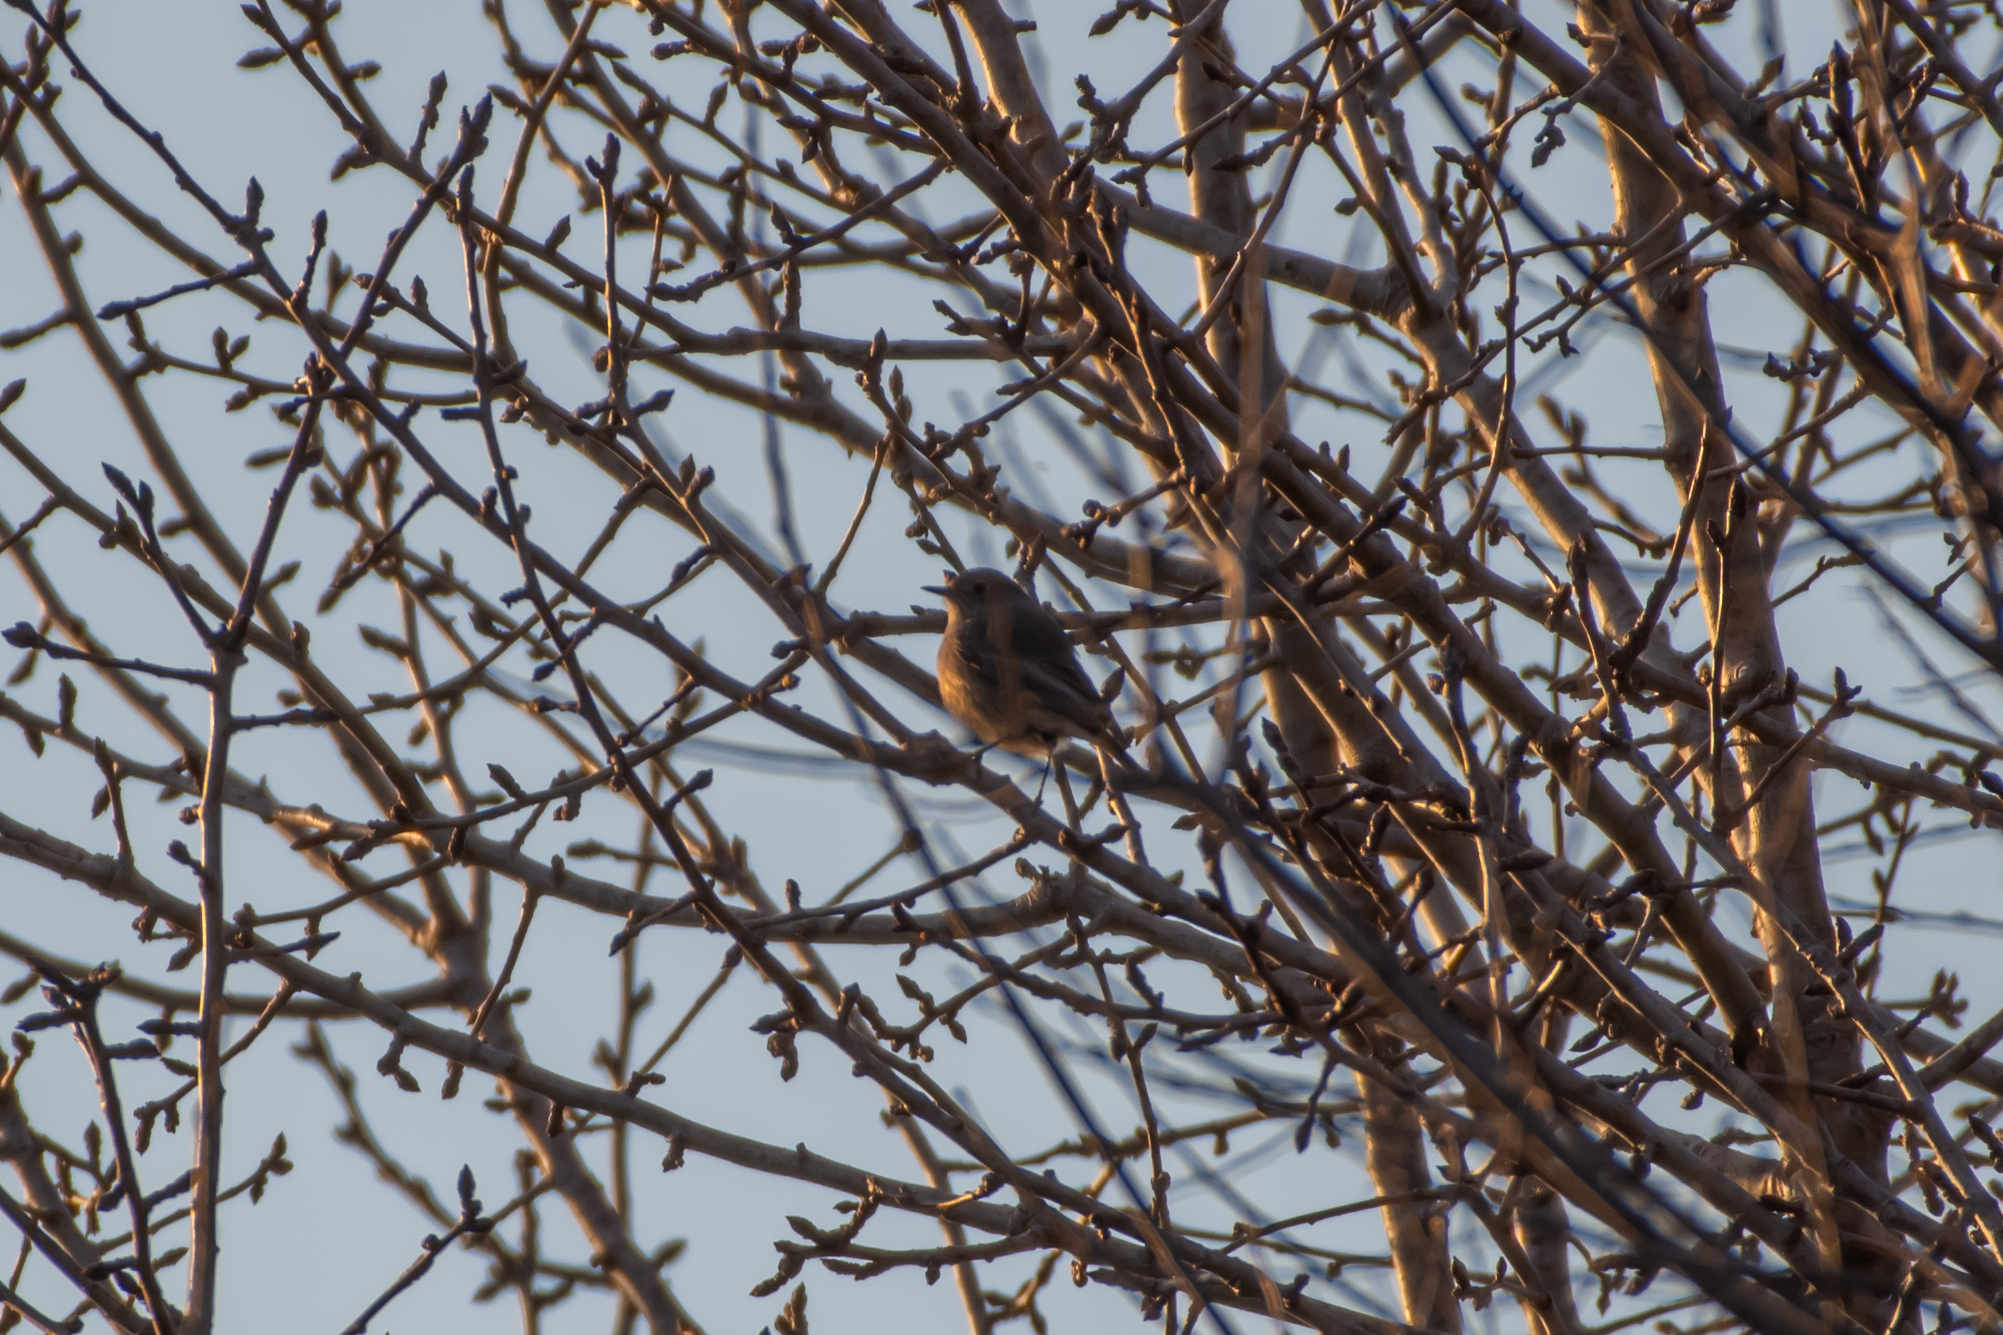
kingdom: Animalia
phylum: Chordata
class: Aves
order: Passeriformes
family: Muscicapidae
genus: Phoenicurus
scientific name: Phoenicurus ochruros
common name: Black redstart
